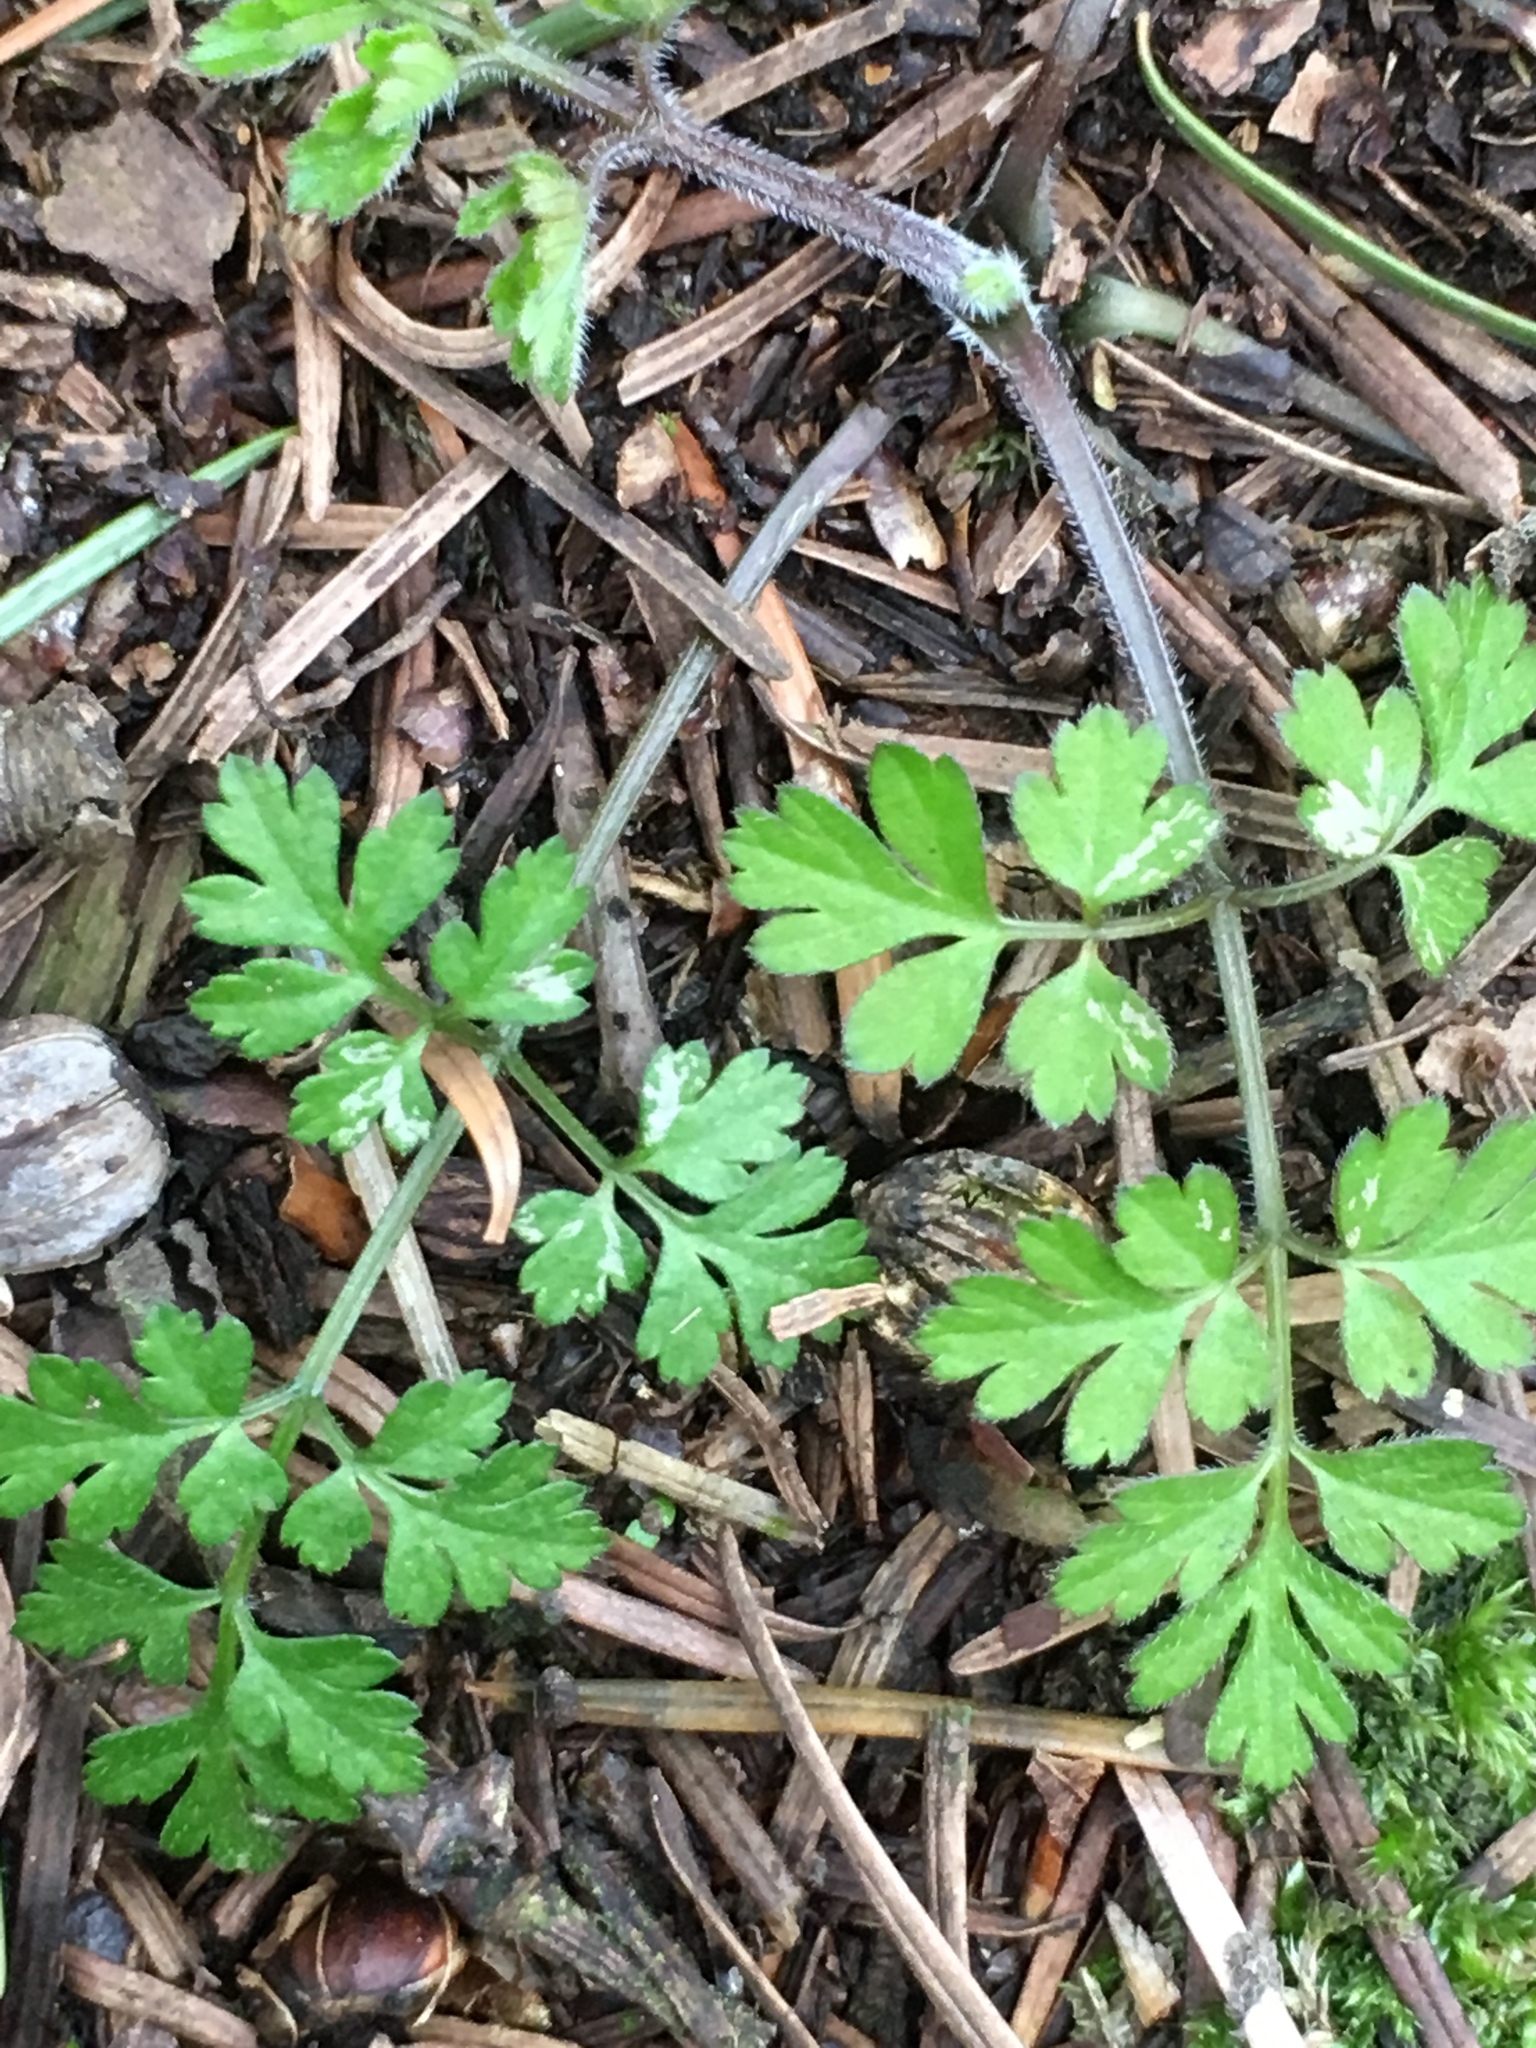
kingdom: Plantae
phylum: Tracheophyta
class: Magnoliopsida
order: Apiales
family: Apiaceae
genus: Chaerophyllum
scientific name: Chaerophyllum temulum
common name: Rough chervil
